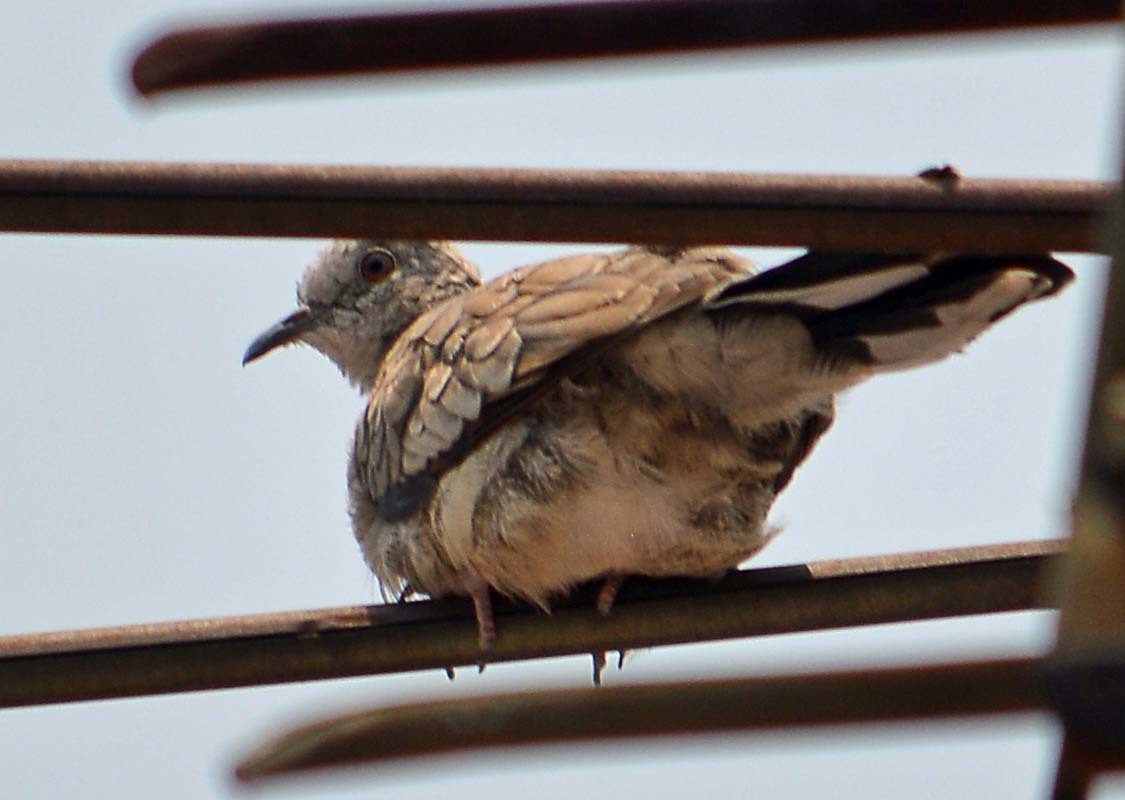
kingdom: Animalia
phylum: Chordata
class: Aves
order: Columbiformes
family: Columbidae
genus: Columbina
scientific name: Columbina inca
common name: Inca dove
